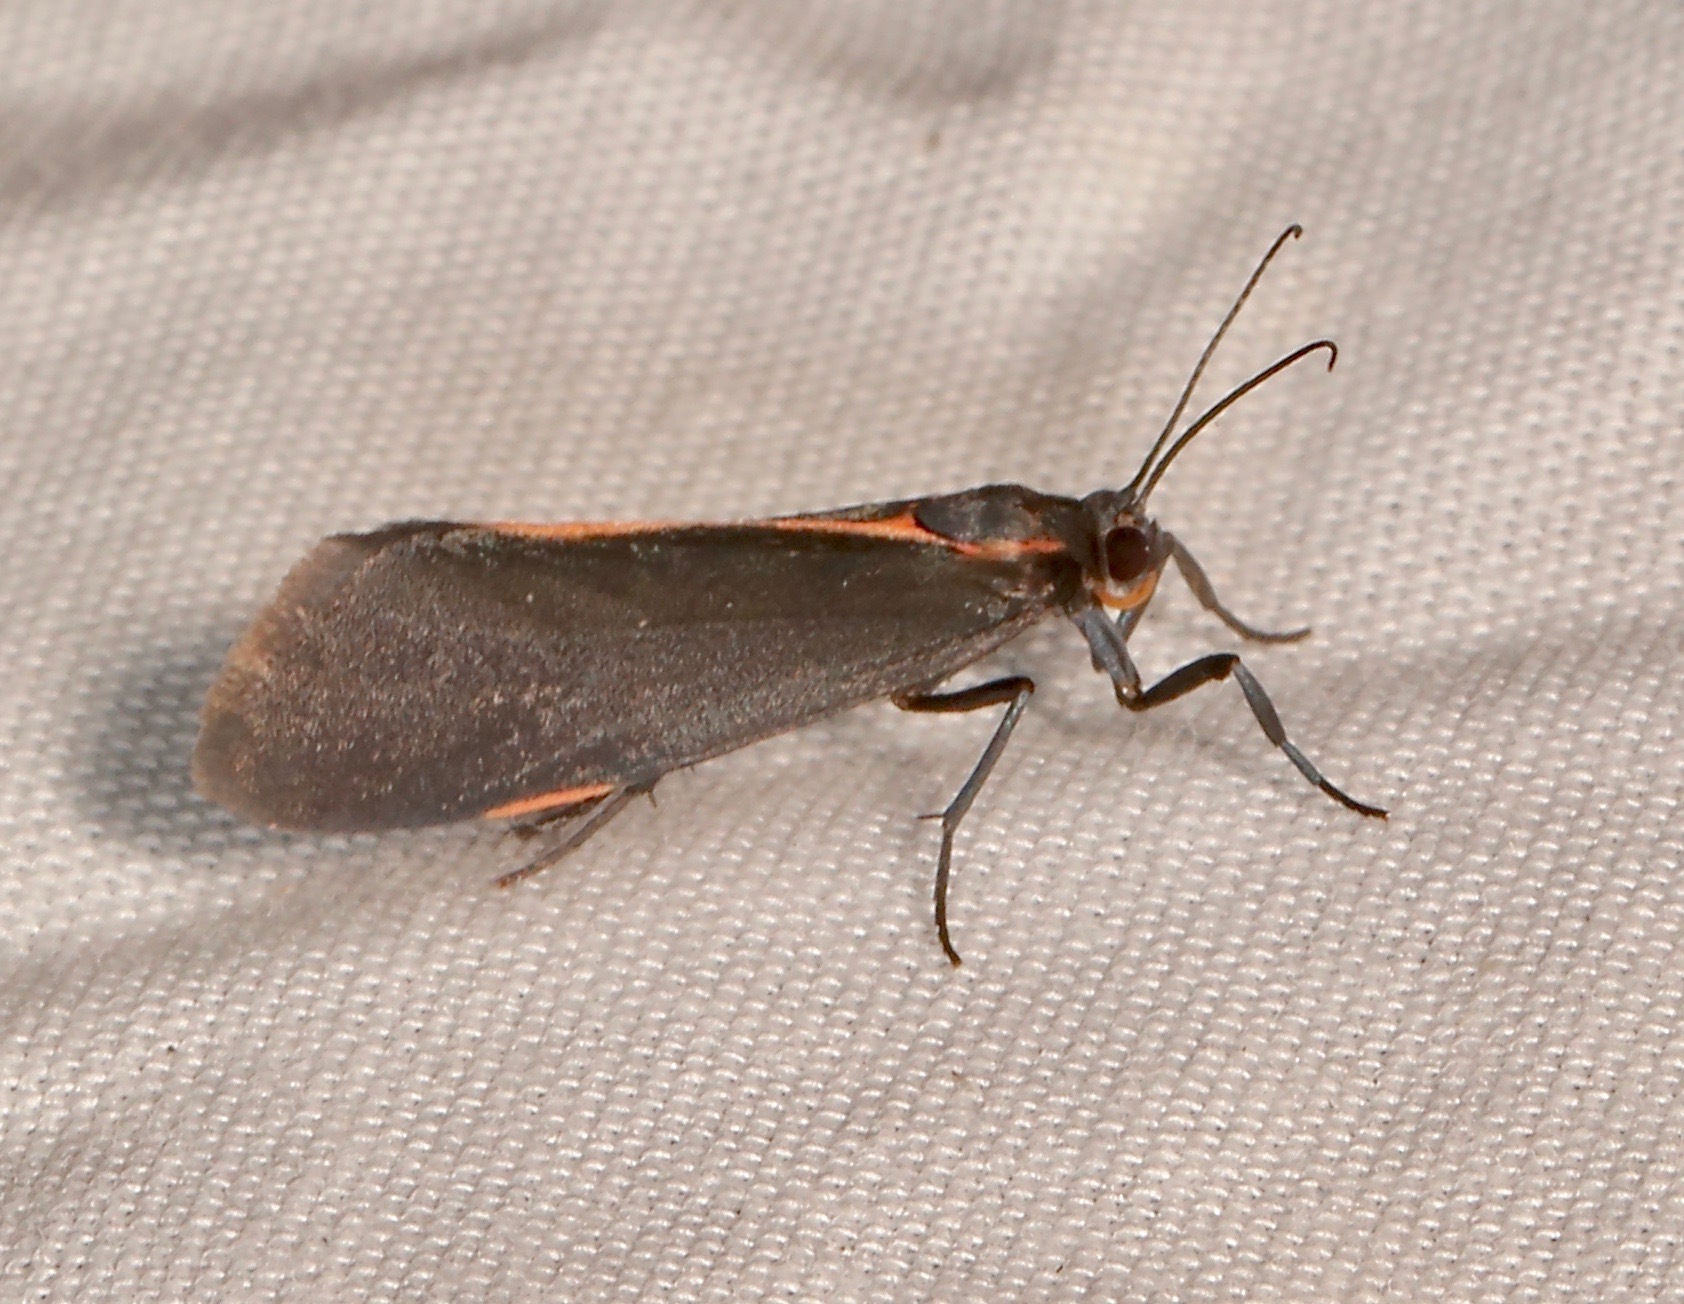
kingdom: Animalia
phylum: Arthropoda
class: Insecta
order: Lepidoptera
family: Erebidae
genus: Cisthene
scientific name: Cisthene juanita
